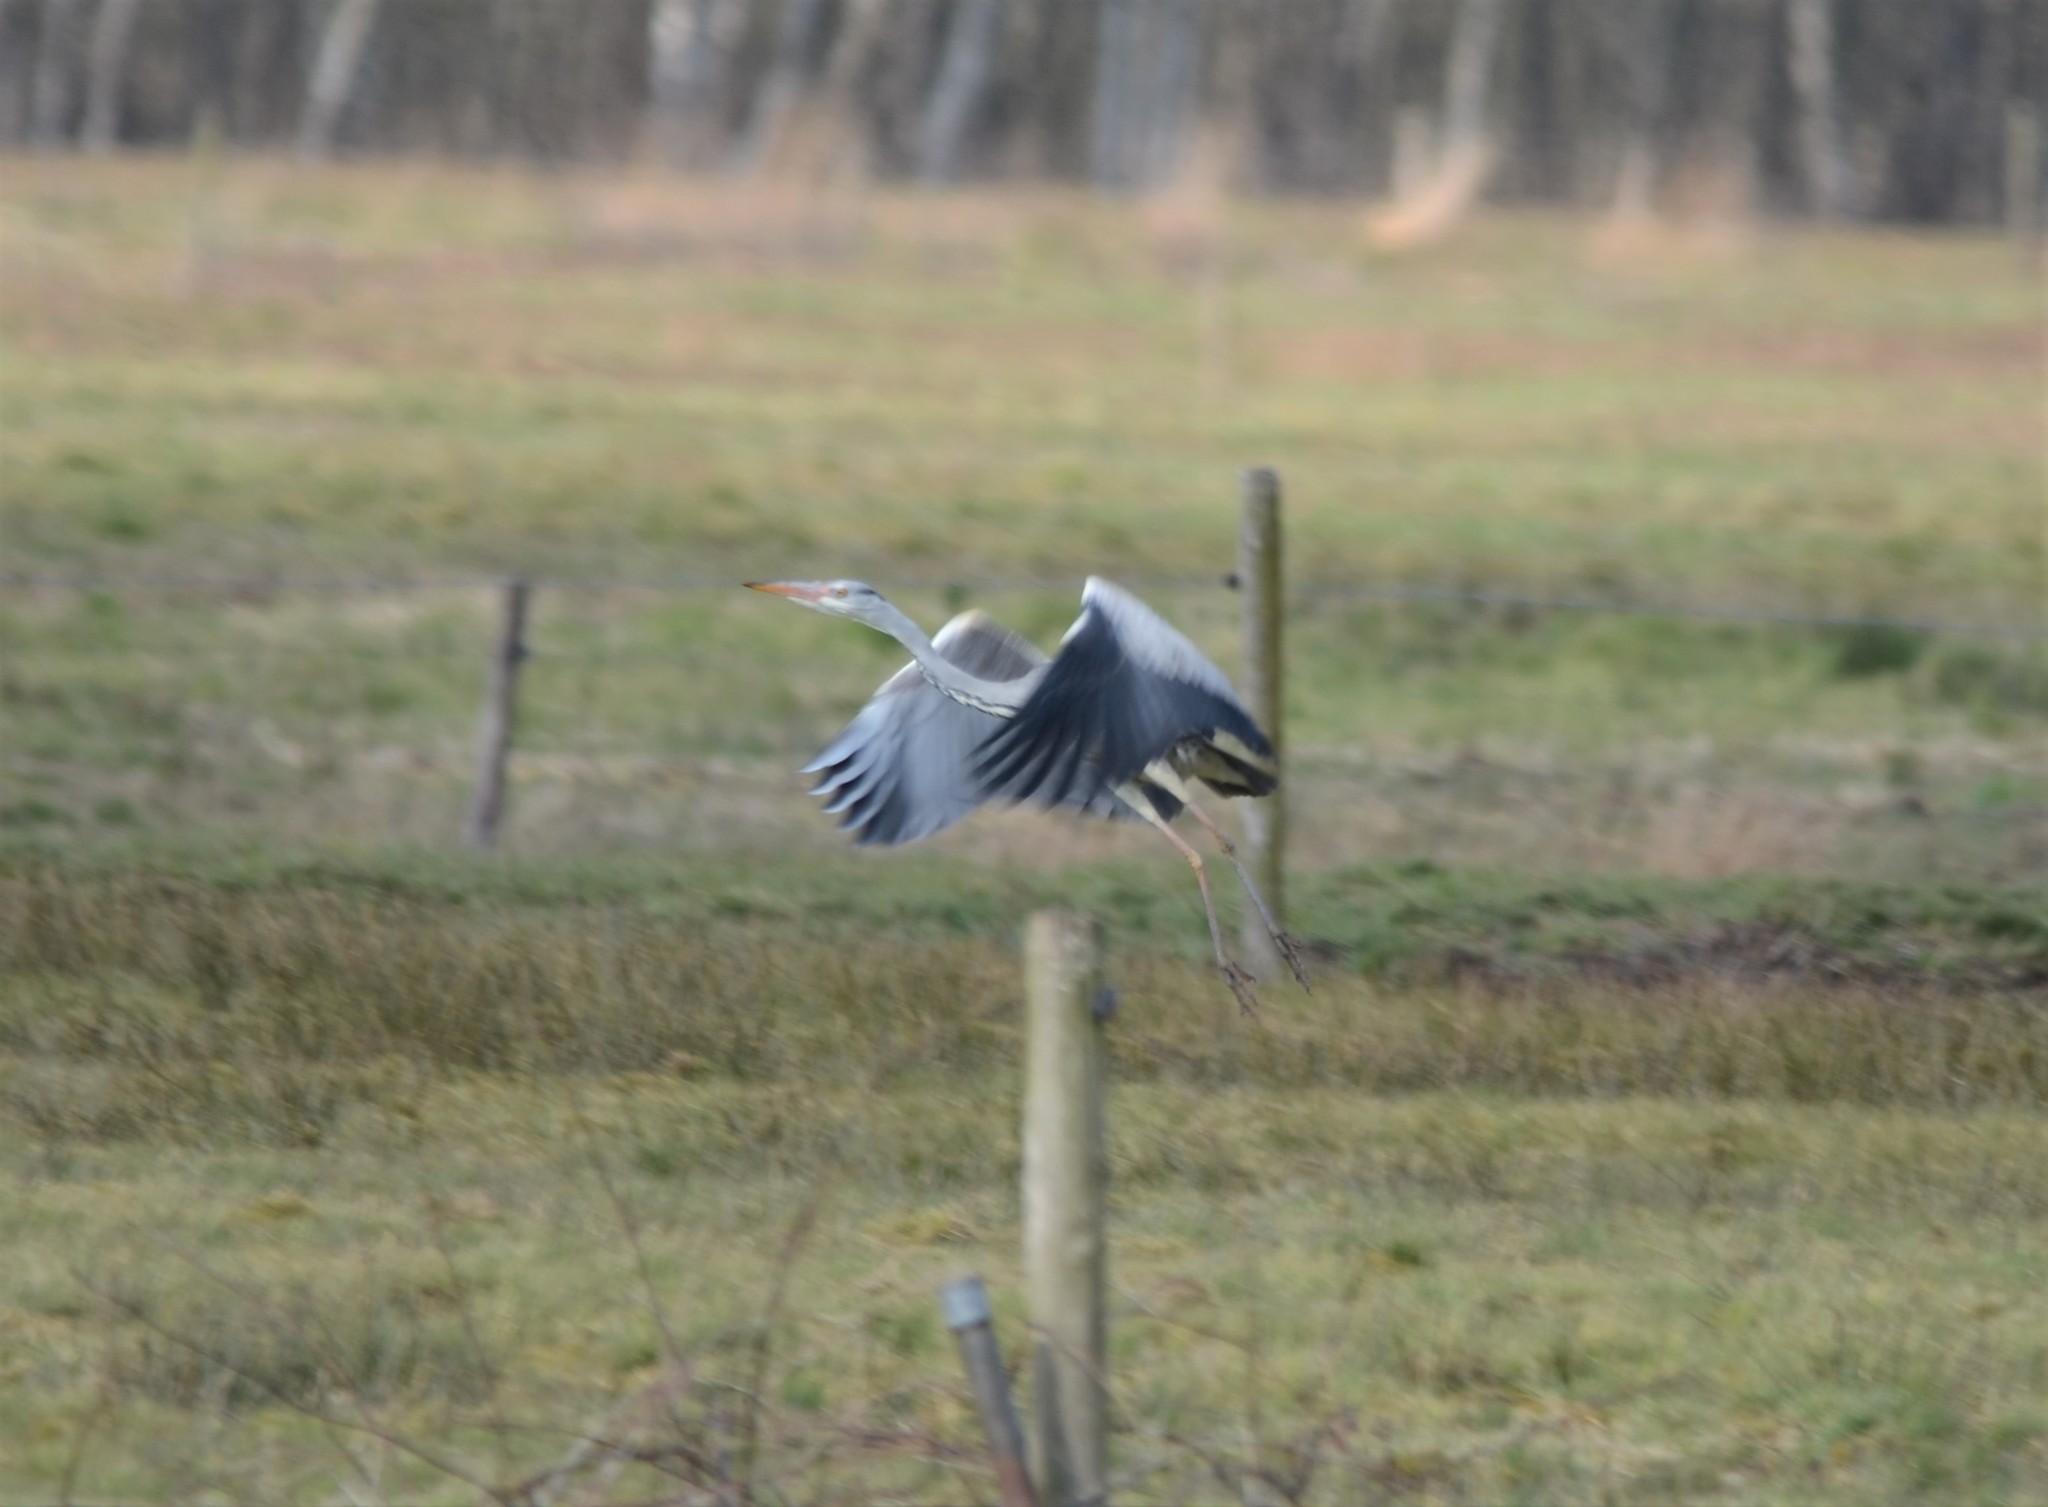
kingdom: Animalia
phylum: Chordata
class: Aves
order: Pelecaniformes
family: Ardeidae
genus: Ardea
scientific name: Ardea cinerea
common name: Grey heron
